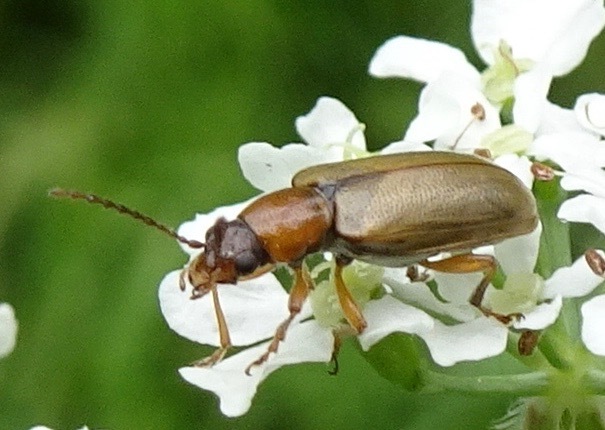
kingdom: Animalia
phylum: Arthropoda
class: Insecta
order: Coleoptera
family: Orsodacnidae
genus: Orsodacne
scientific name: Orsodacne cerasi
